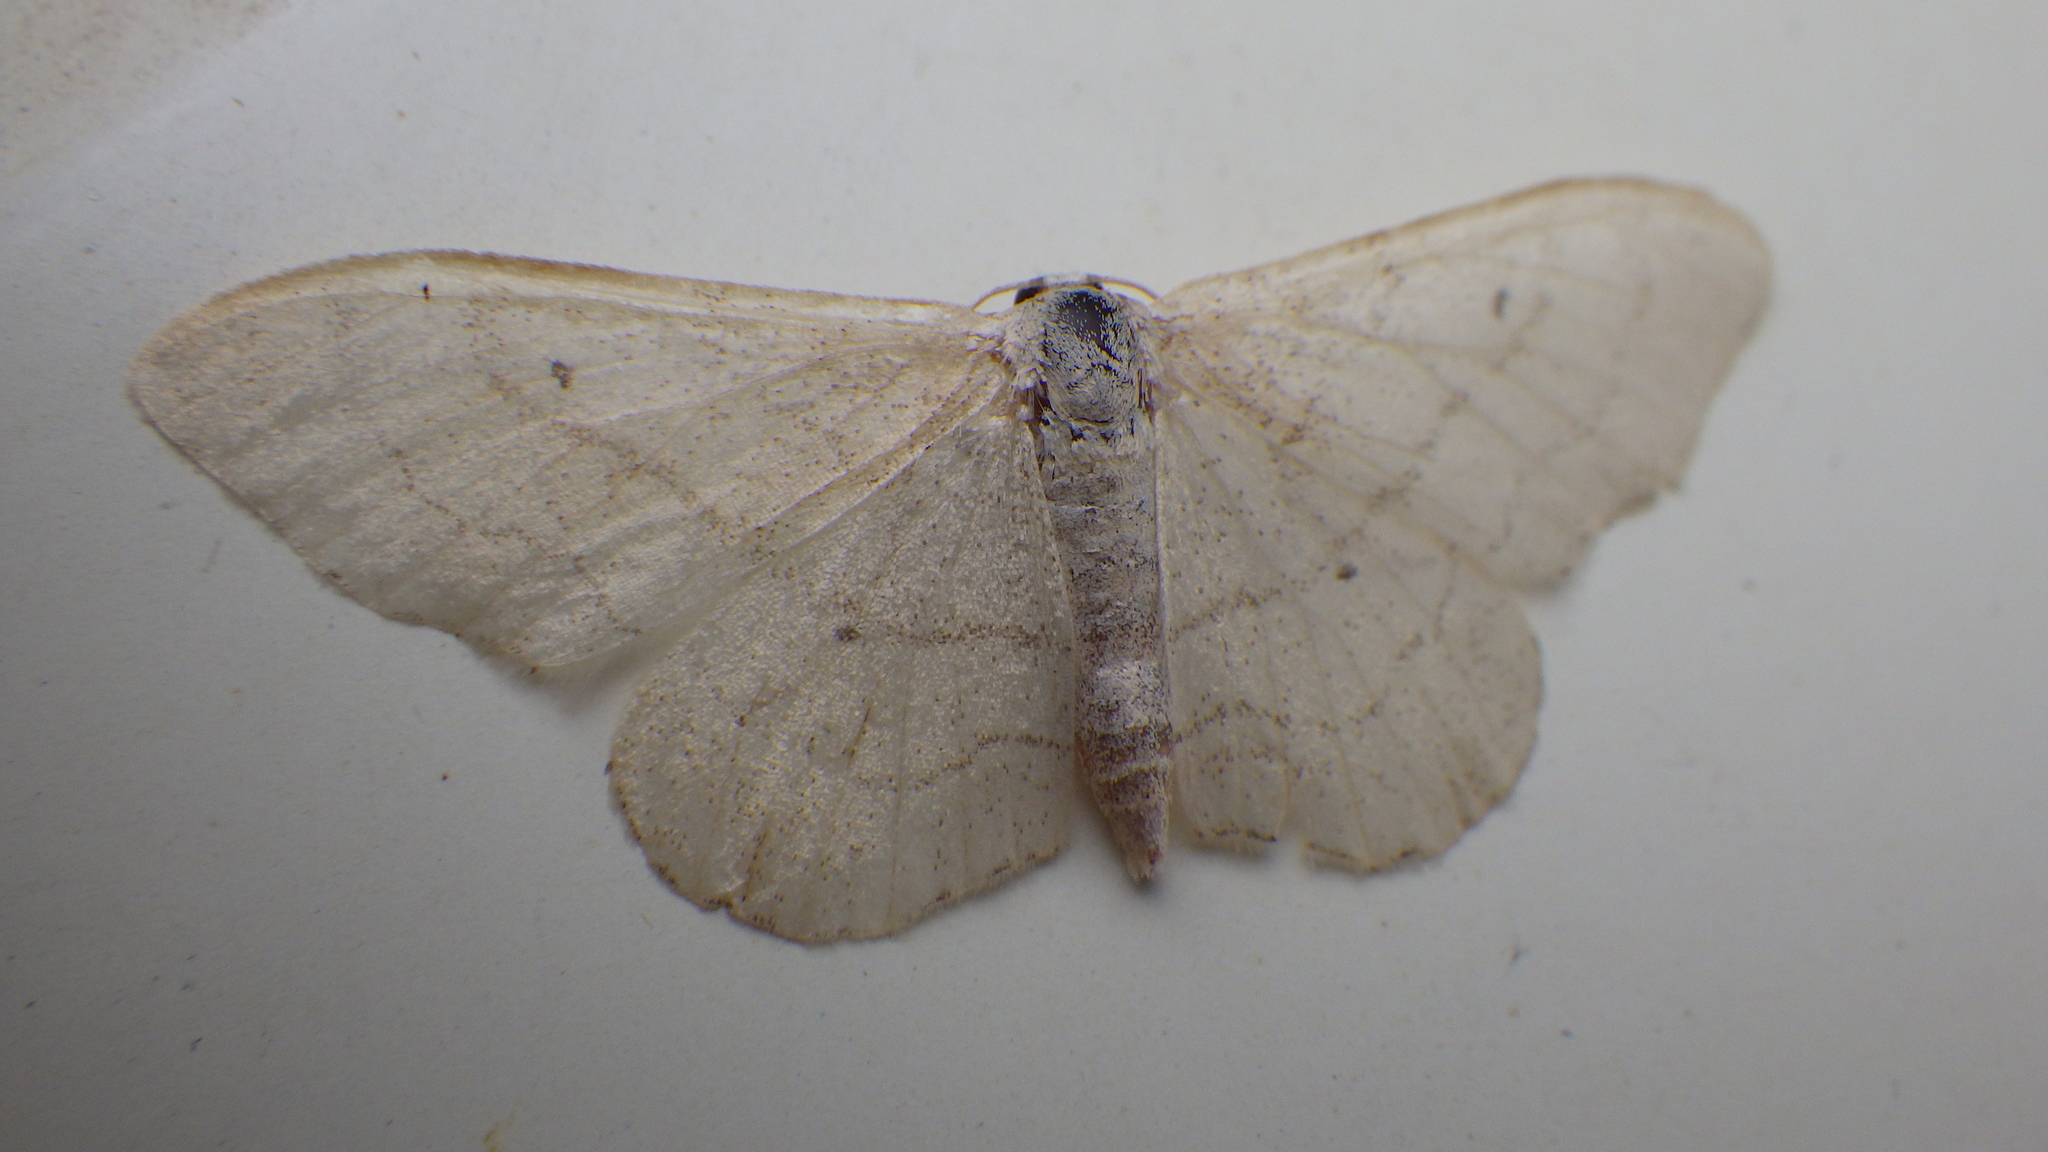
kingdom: Animalia
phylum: Arthropoda
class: Insecta
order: Lepidoptera
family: Geometridae
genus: Idaea
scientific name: Idaea aversata
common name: Riband wave
